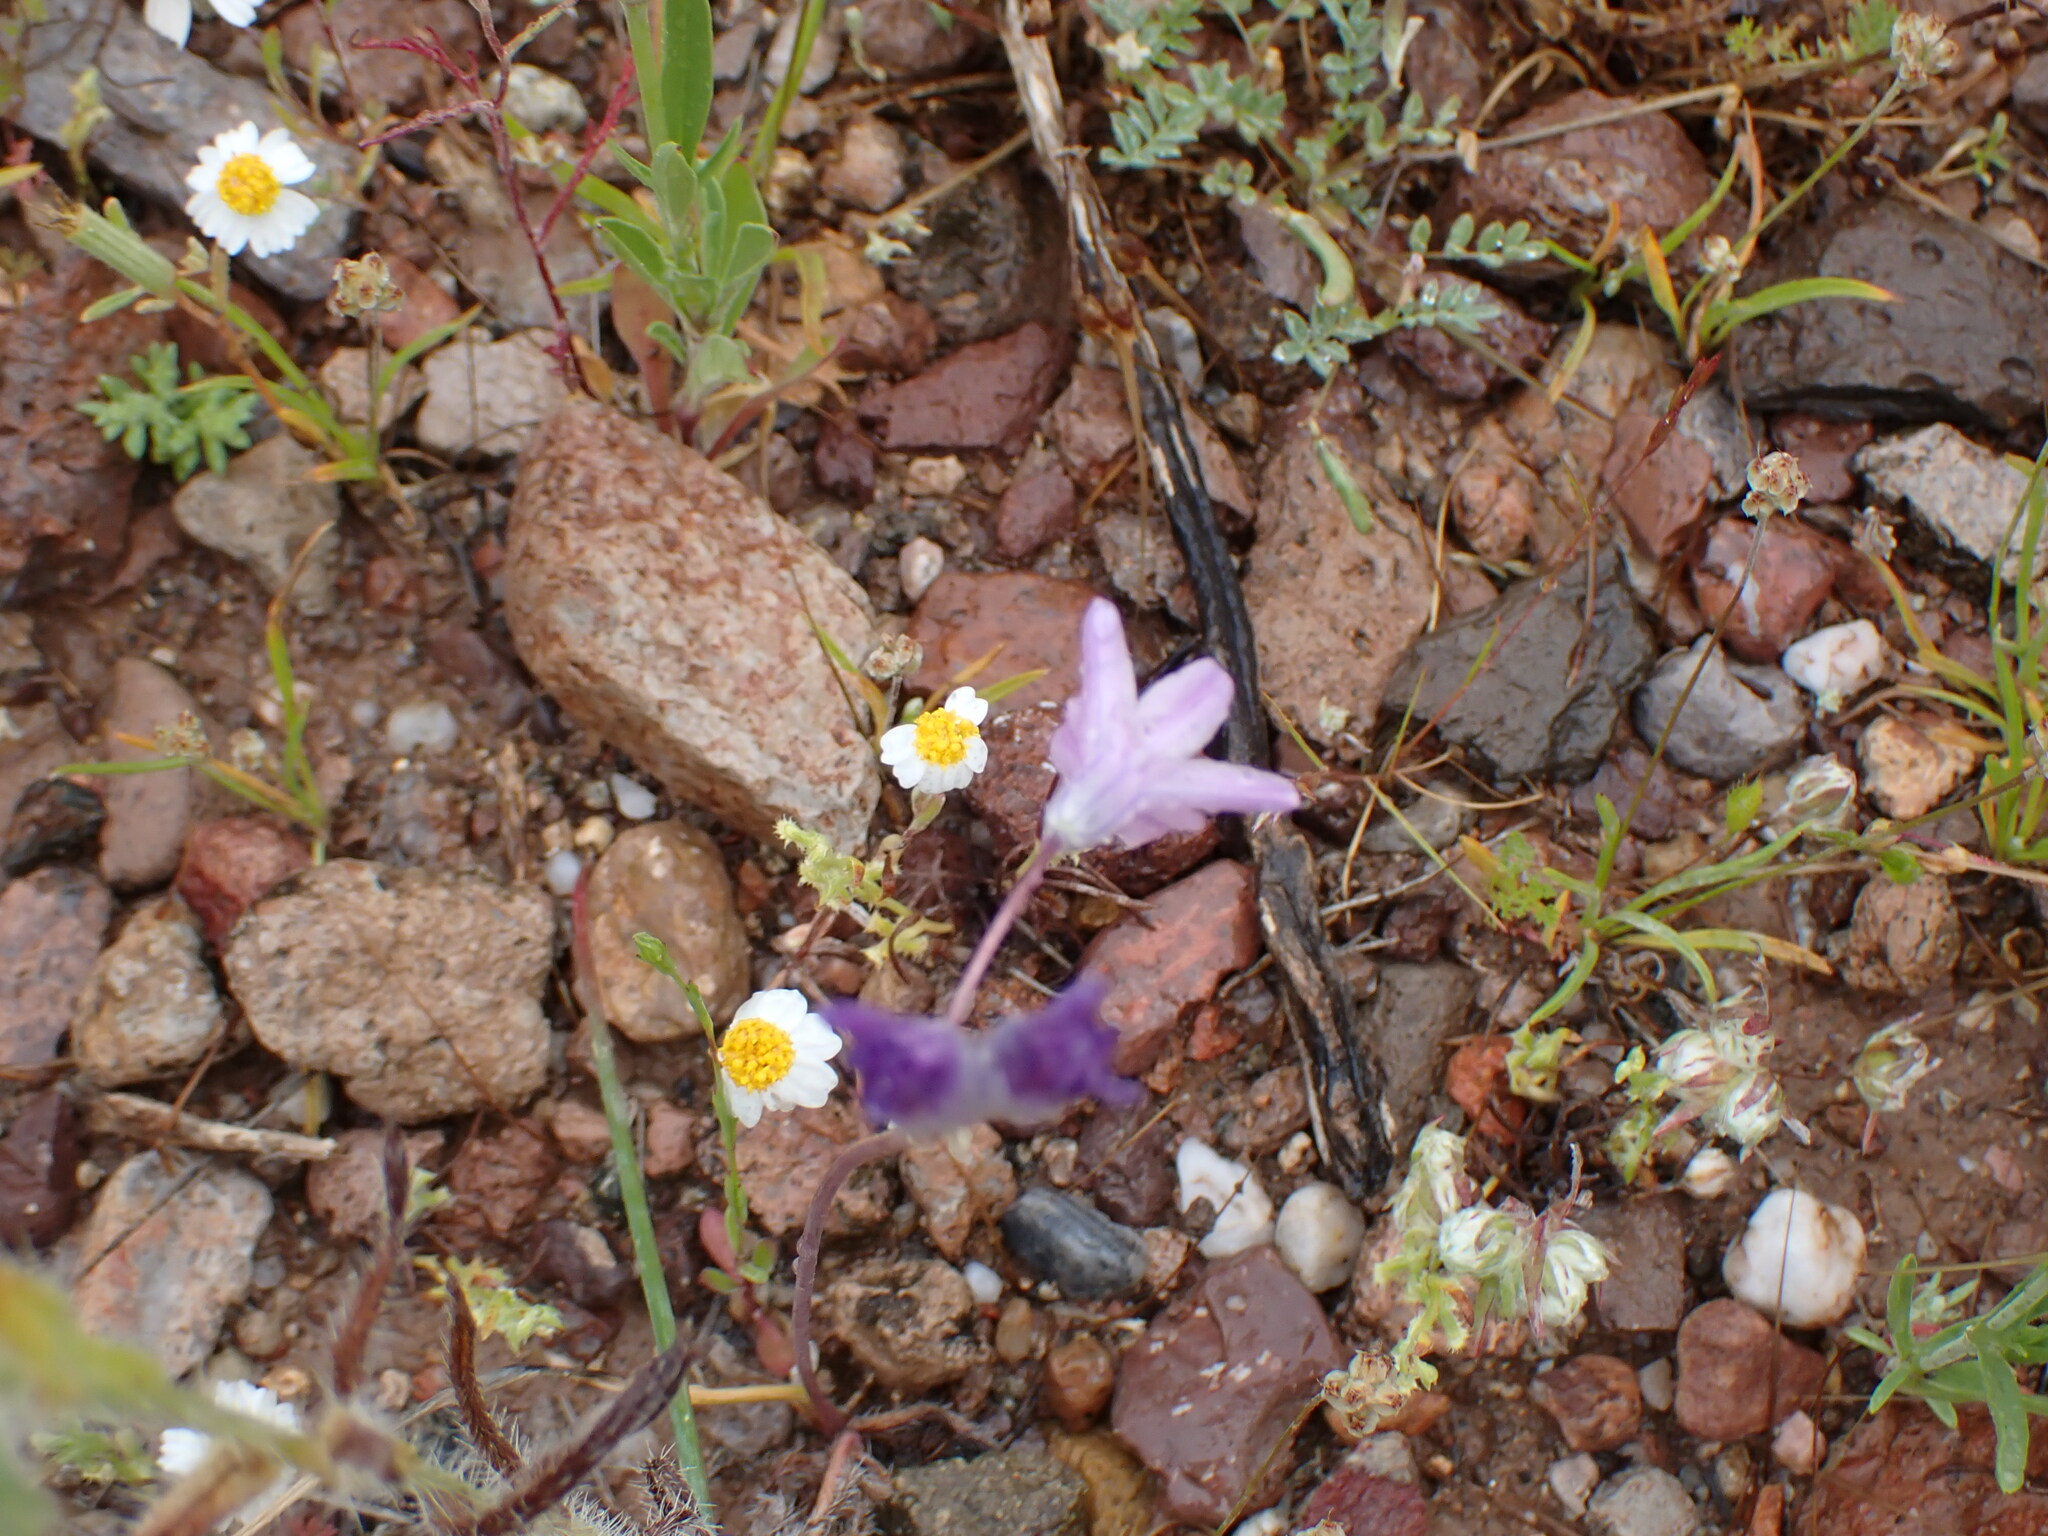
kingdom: Plantae
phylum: Tracheophyta
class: Liliopsida
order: Asparagales
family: Asparagaceae
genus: Dipterostemon
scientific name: Dipterostemon capitatus
